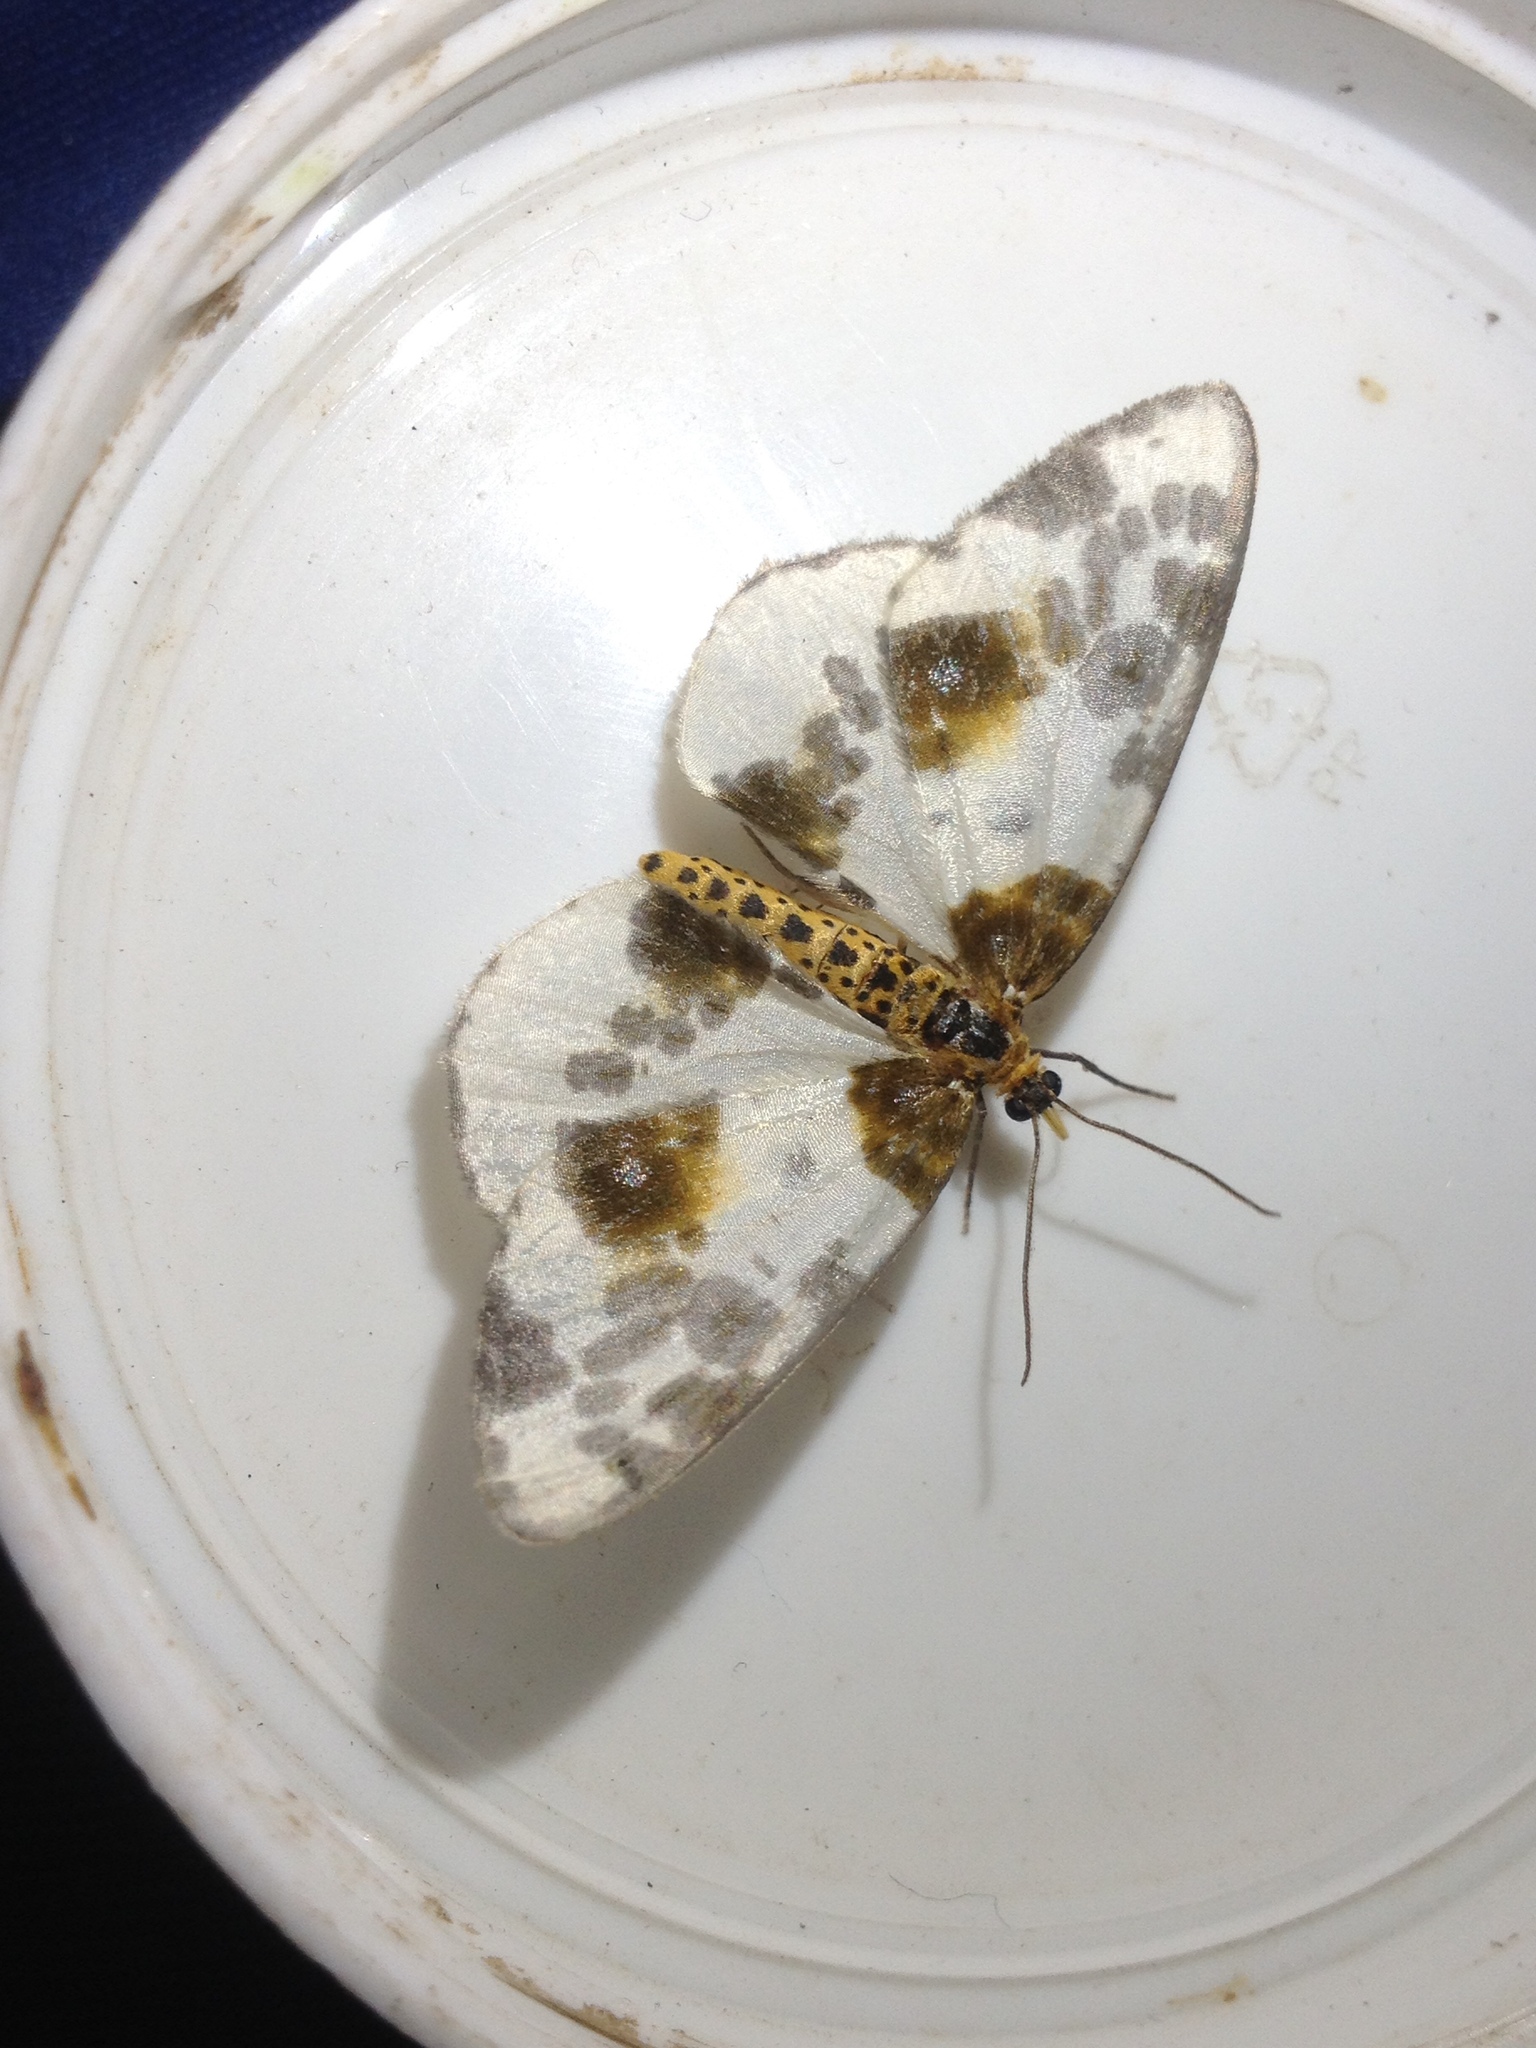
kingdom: Animalia
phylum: Arthropoda
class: Insecta
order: Lepidoptera
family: Geometridae
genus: Abraxas
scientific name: Abraxas sylvata
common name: Clouded magpie
